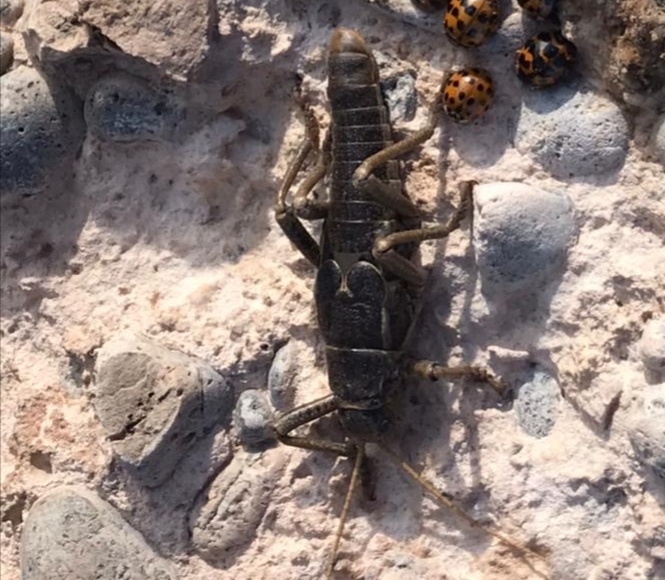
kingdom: Animalia
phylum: Arthropoda
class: Insecta
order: Phasmida
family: Agathemeridae
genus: Agathemera
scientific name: Agathemera millepunctata
